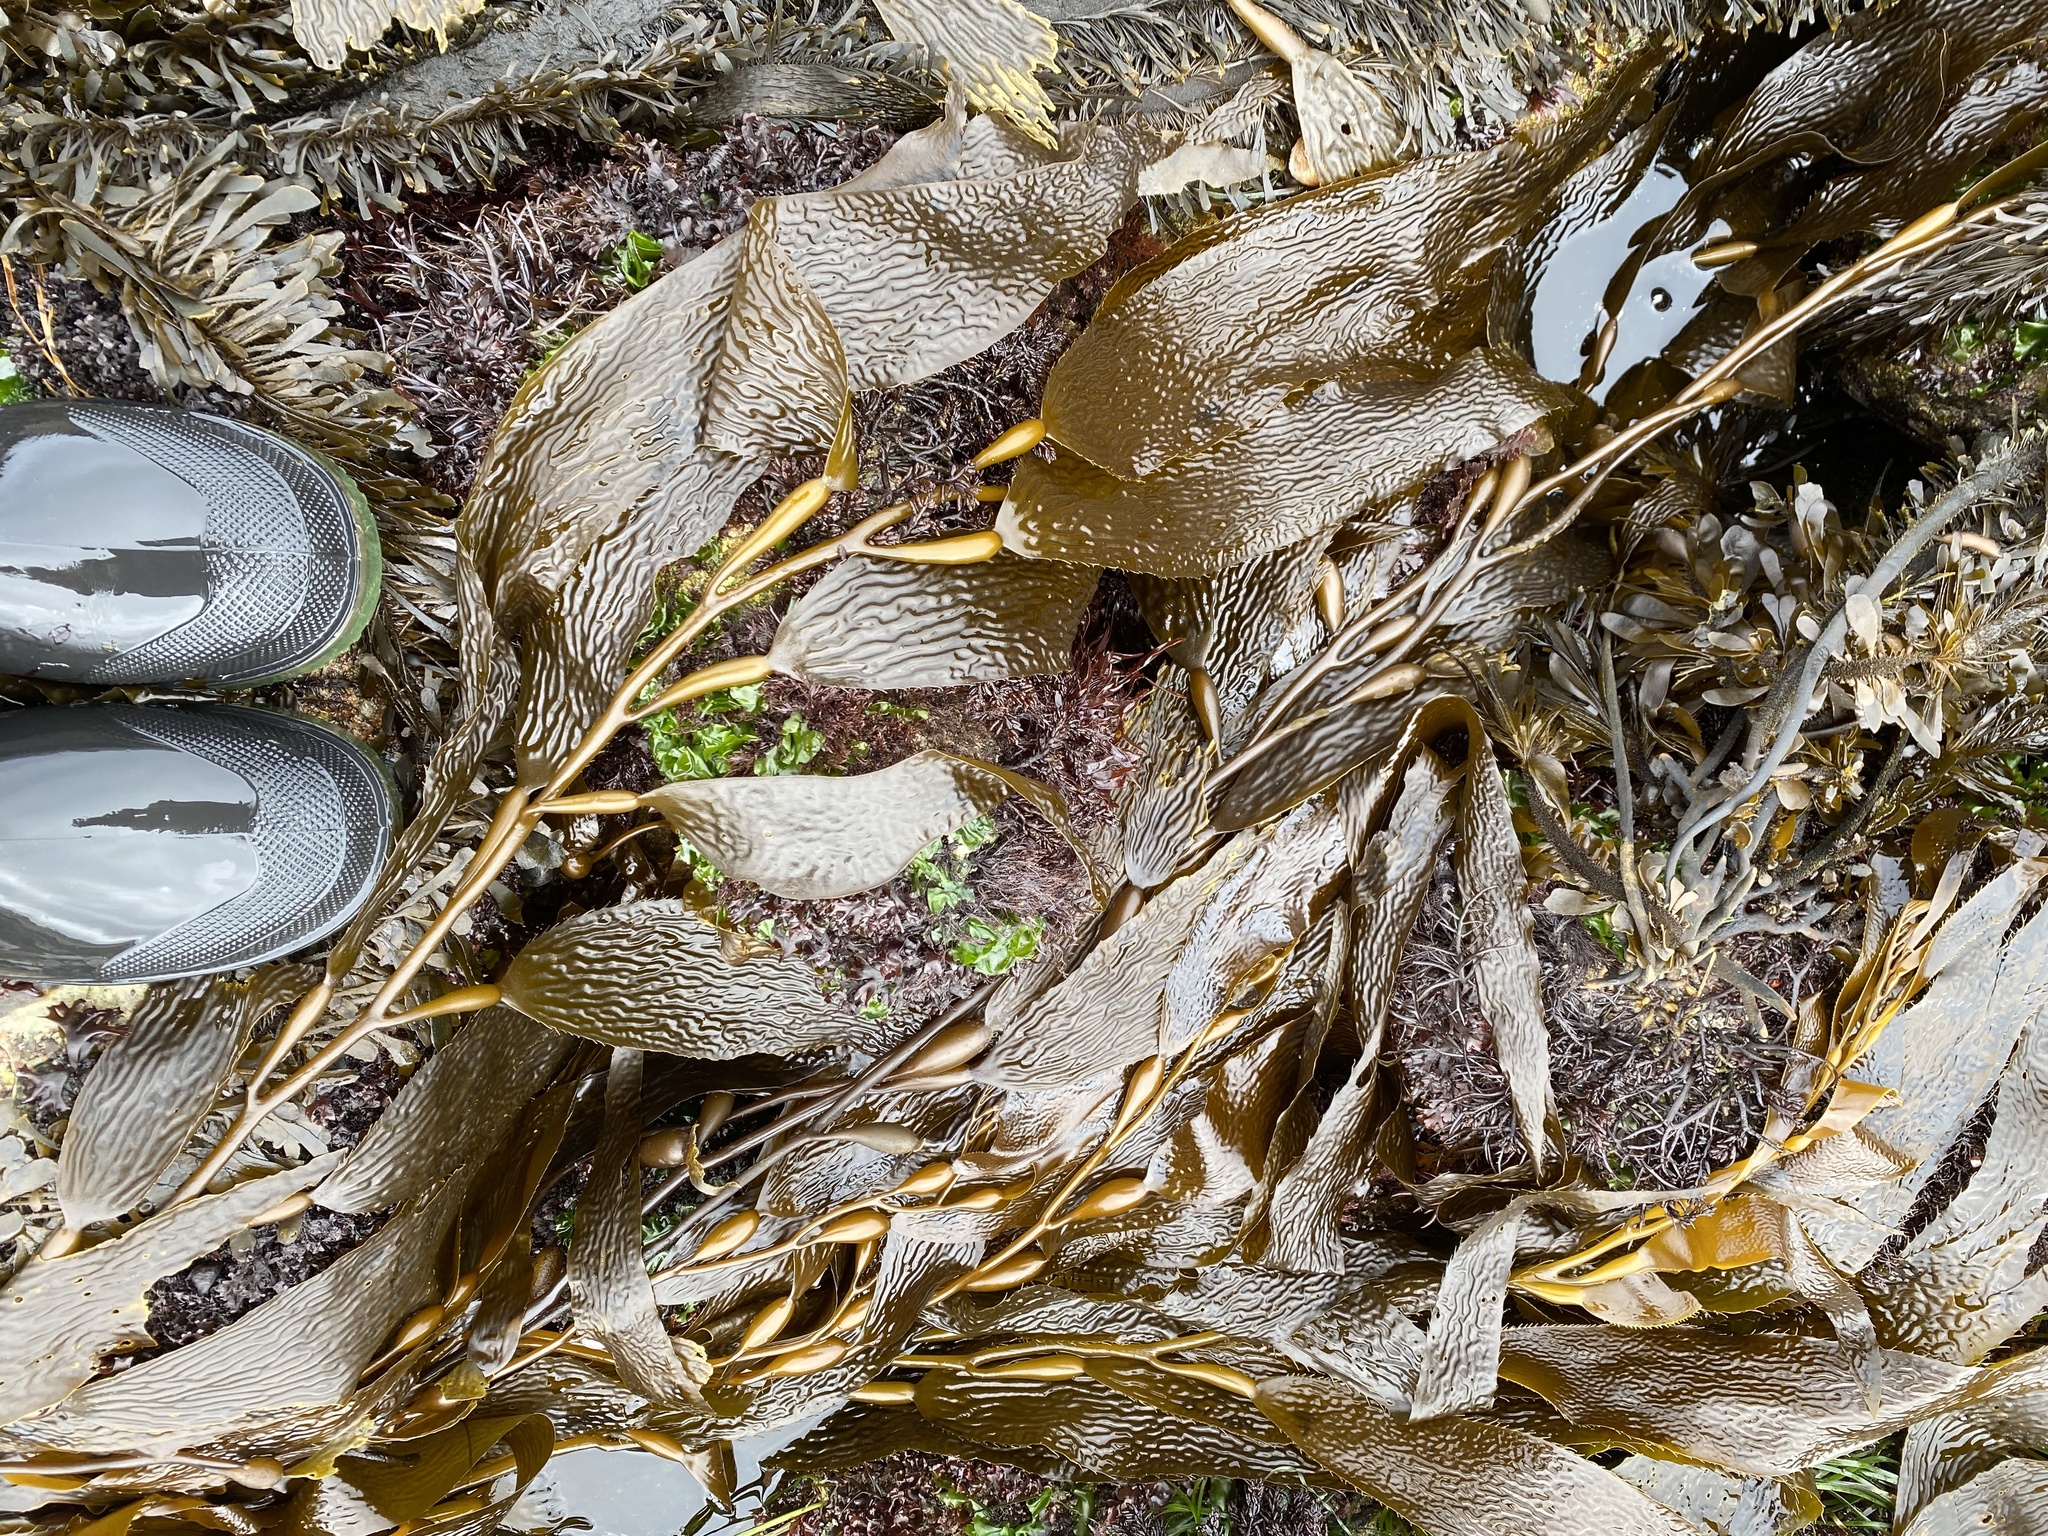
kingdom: Chromista
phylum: Ochrophyta
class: Phaeophyceae
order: Laminariales
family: Laminariaceae
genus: Macrocystis
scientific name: Macrocystis pyrifera
